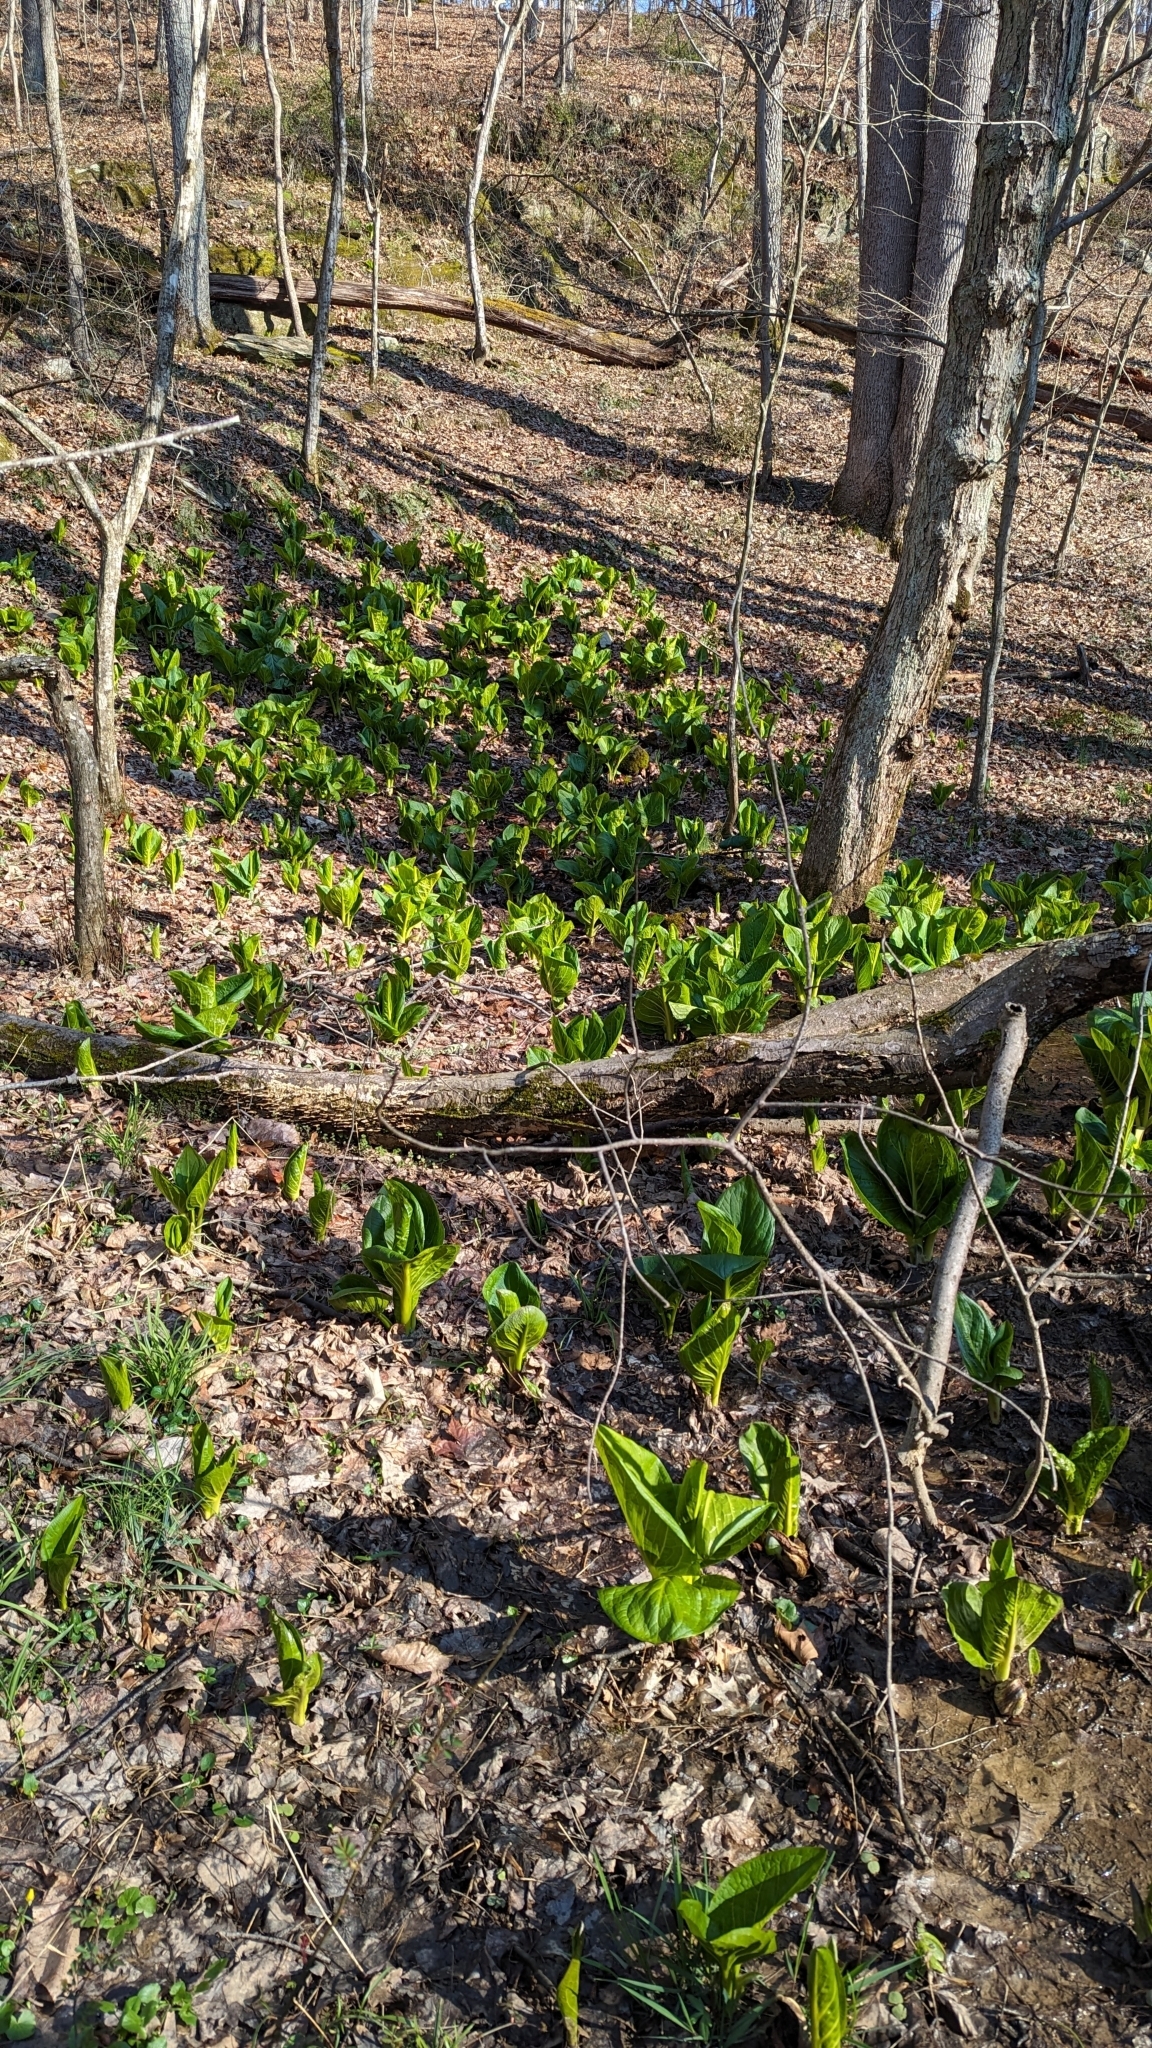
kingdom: Plantae
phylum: Tracheophyta
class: Liliopsida
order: Alismatales
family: Araceae
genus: Symplocarpus
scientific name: Symplocarpus foetidus
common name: Eastern skunk cabbage
